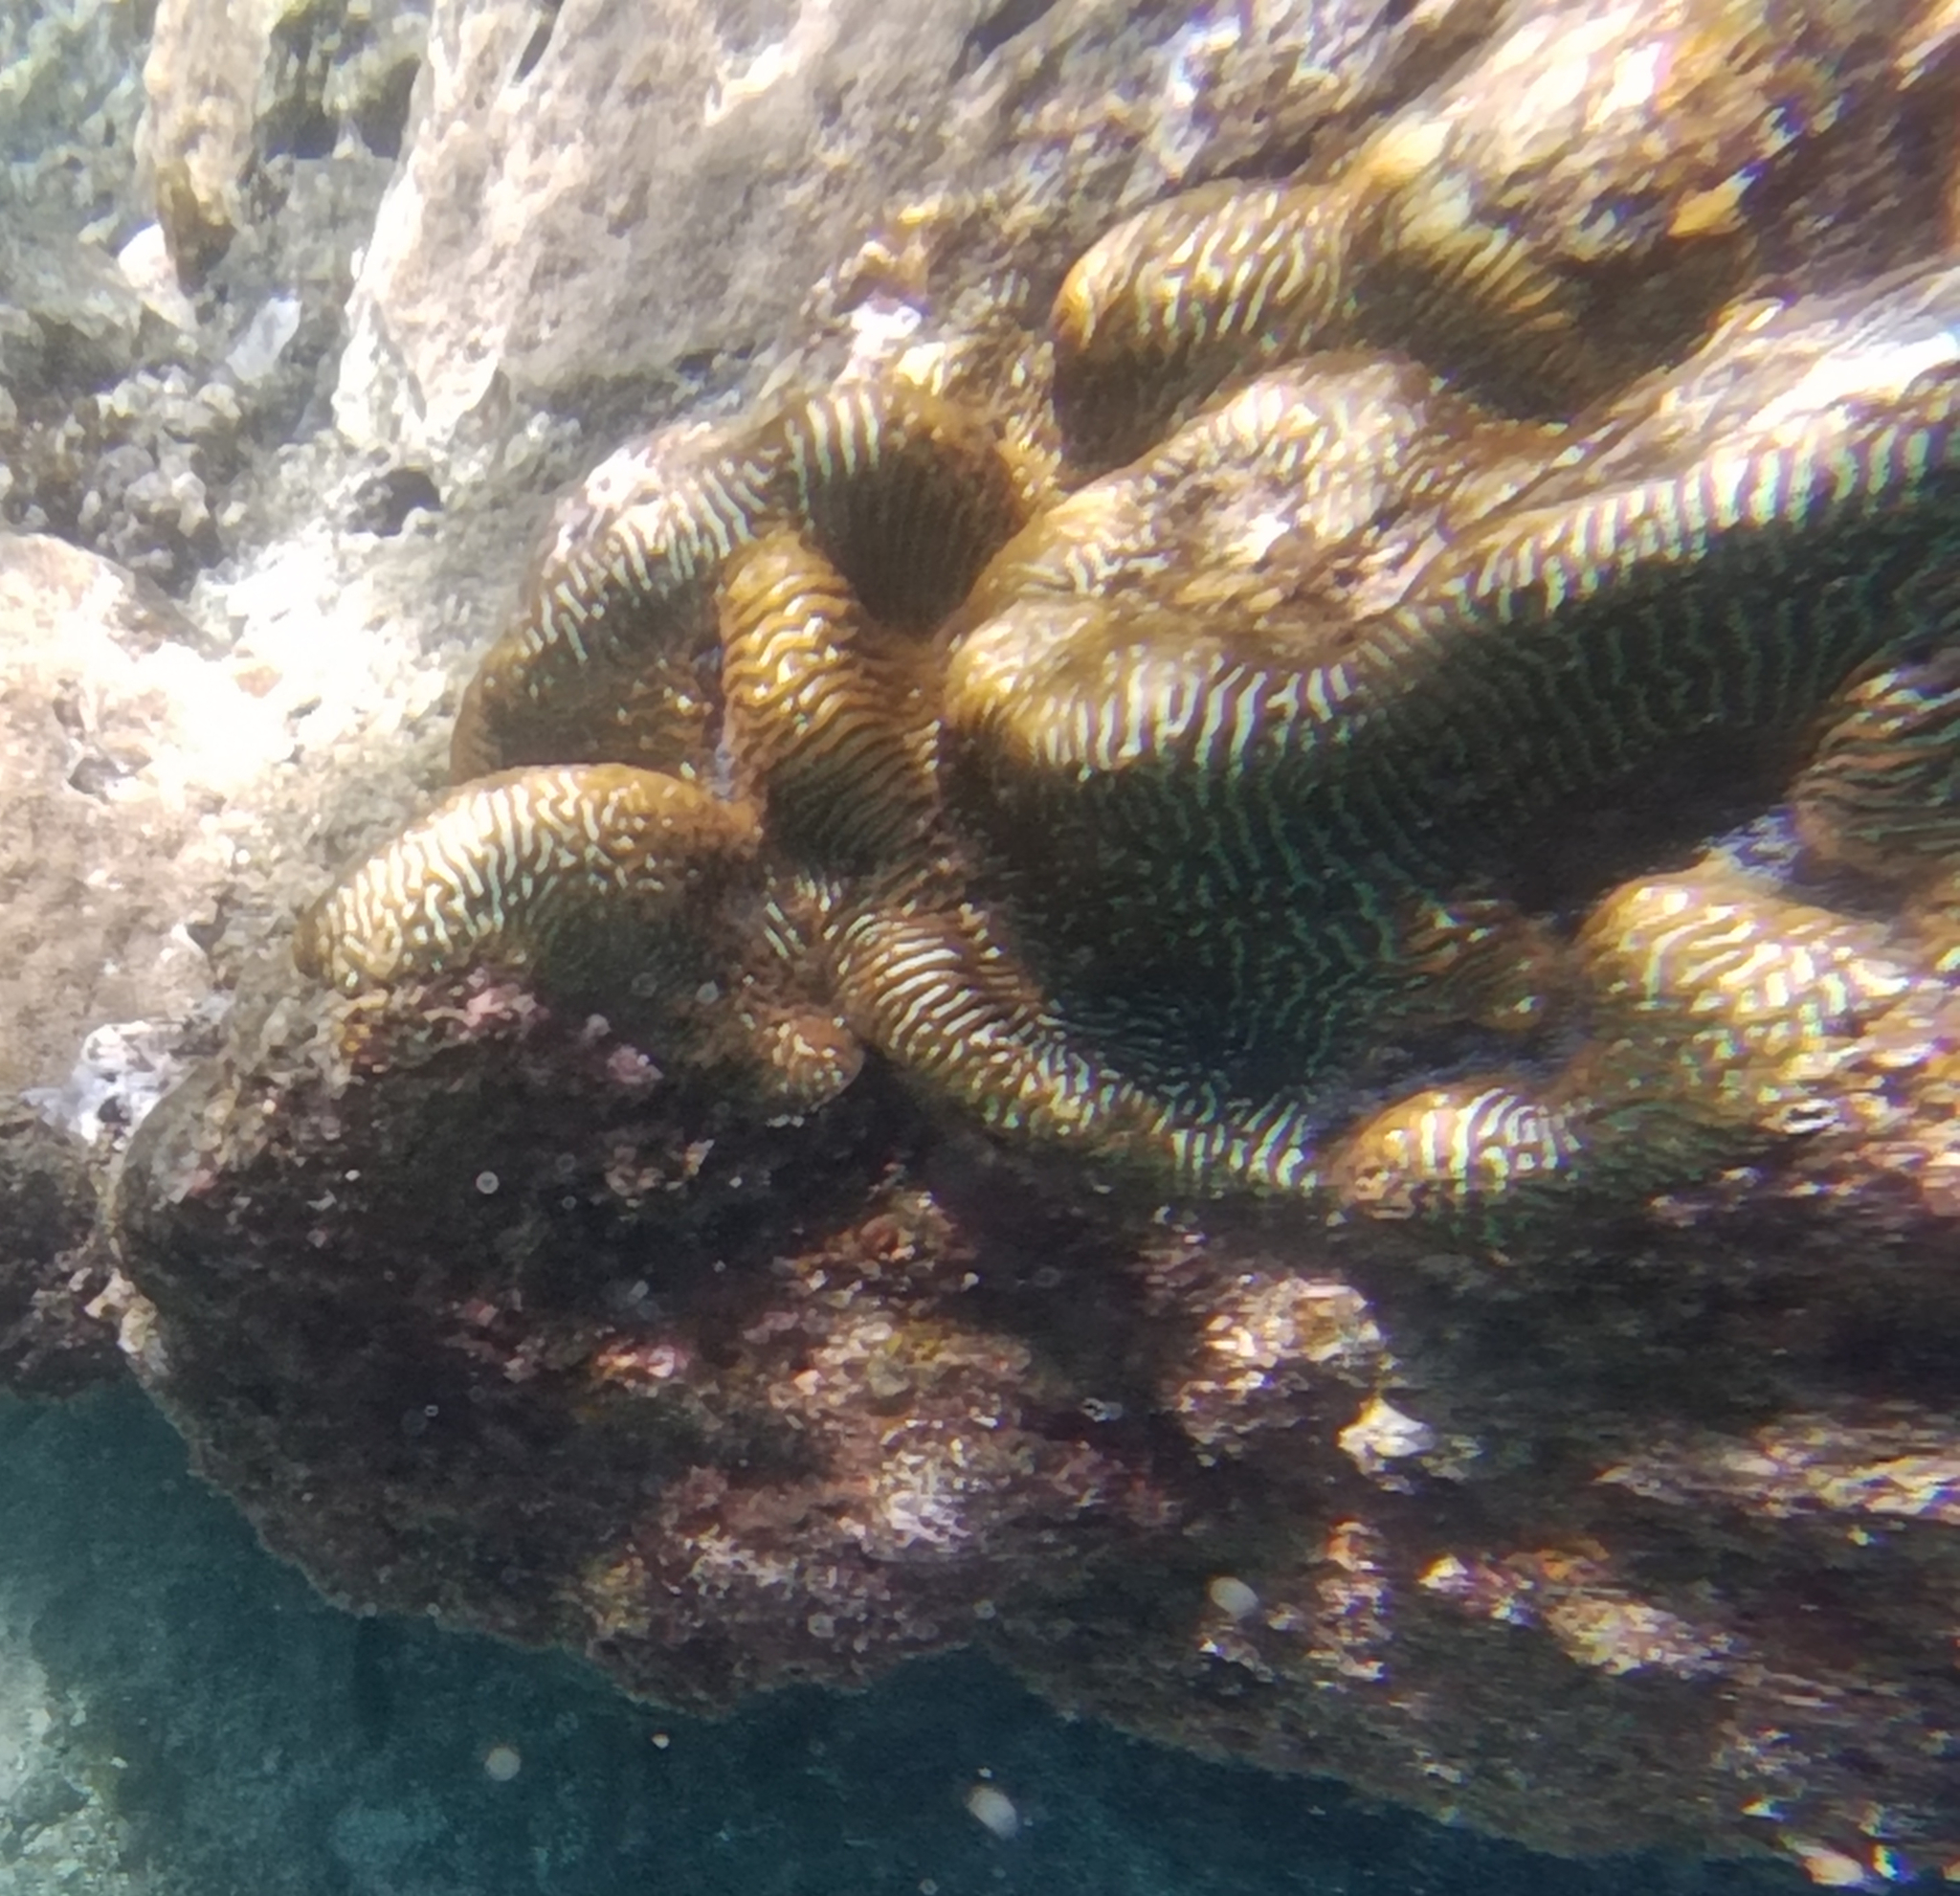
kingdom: Animalia
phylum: Cnidaria
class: Anthozoa
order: Scleractinia
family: Merulinidae
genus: Leptoria
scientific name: Leptoria phrygia
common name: Least valley coral
